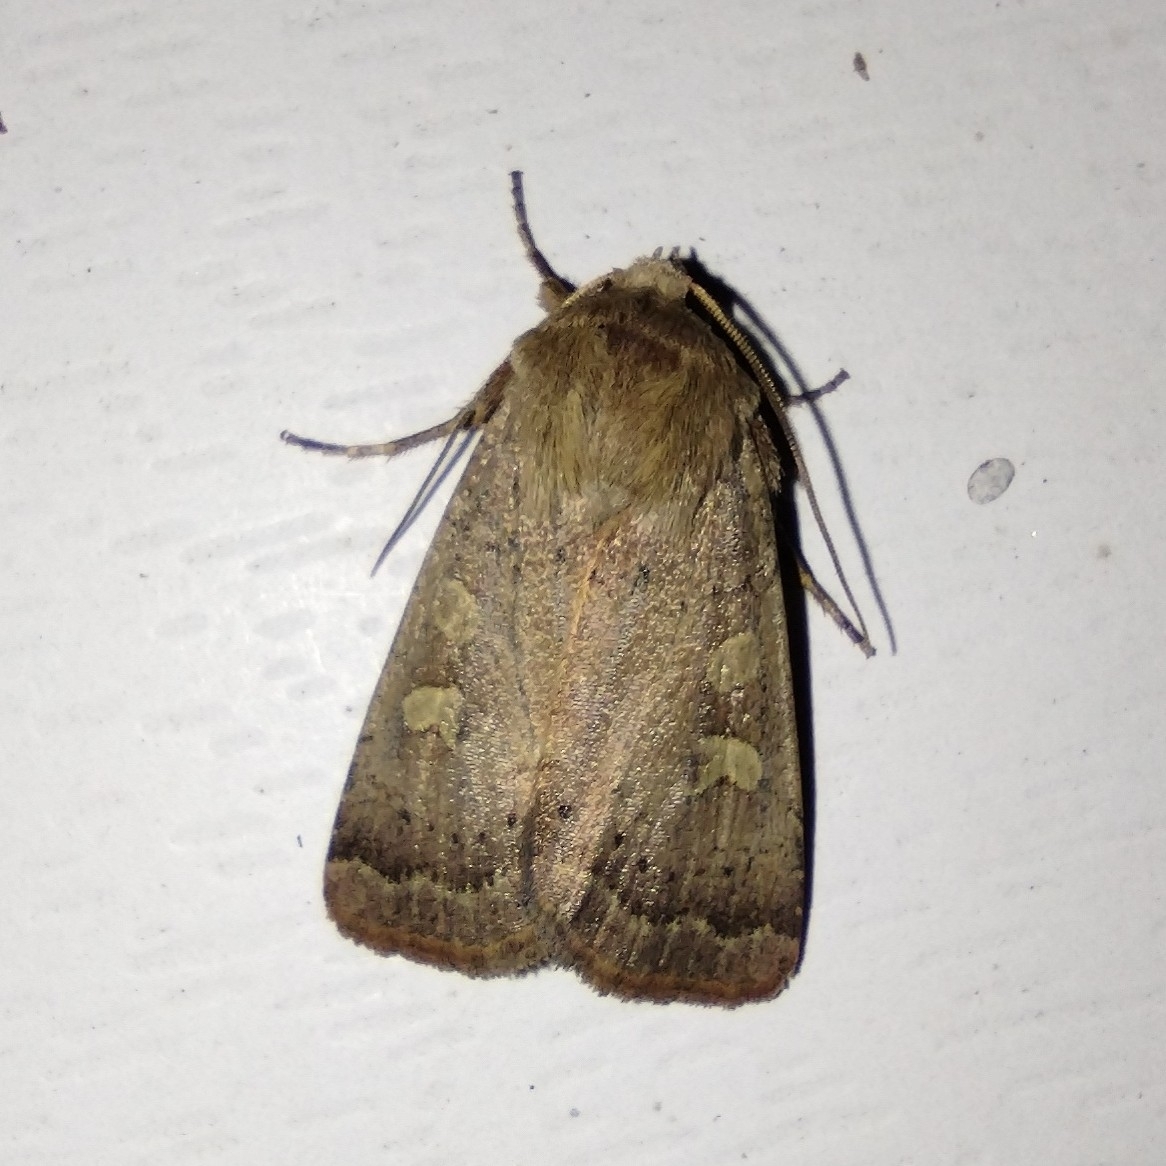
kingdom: Animalia
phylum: Arthropoda
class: Insecta
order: Lepidoptera
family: Noctuidae
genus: Xestia
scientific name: Xestia xanthographa
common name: Square-spot rustic
